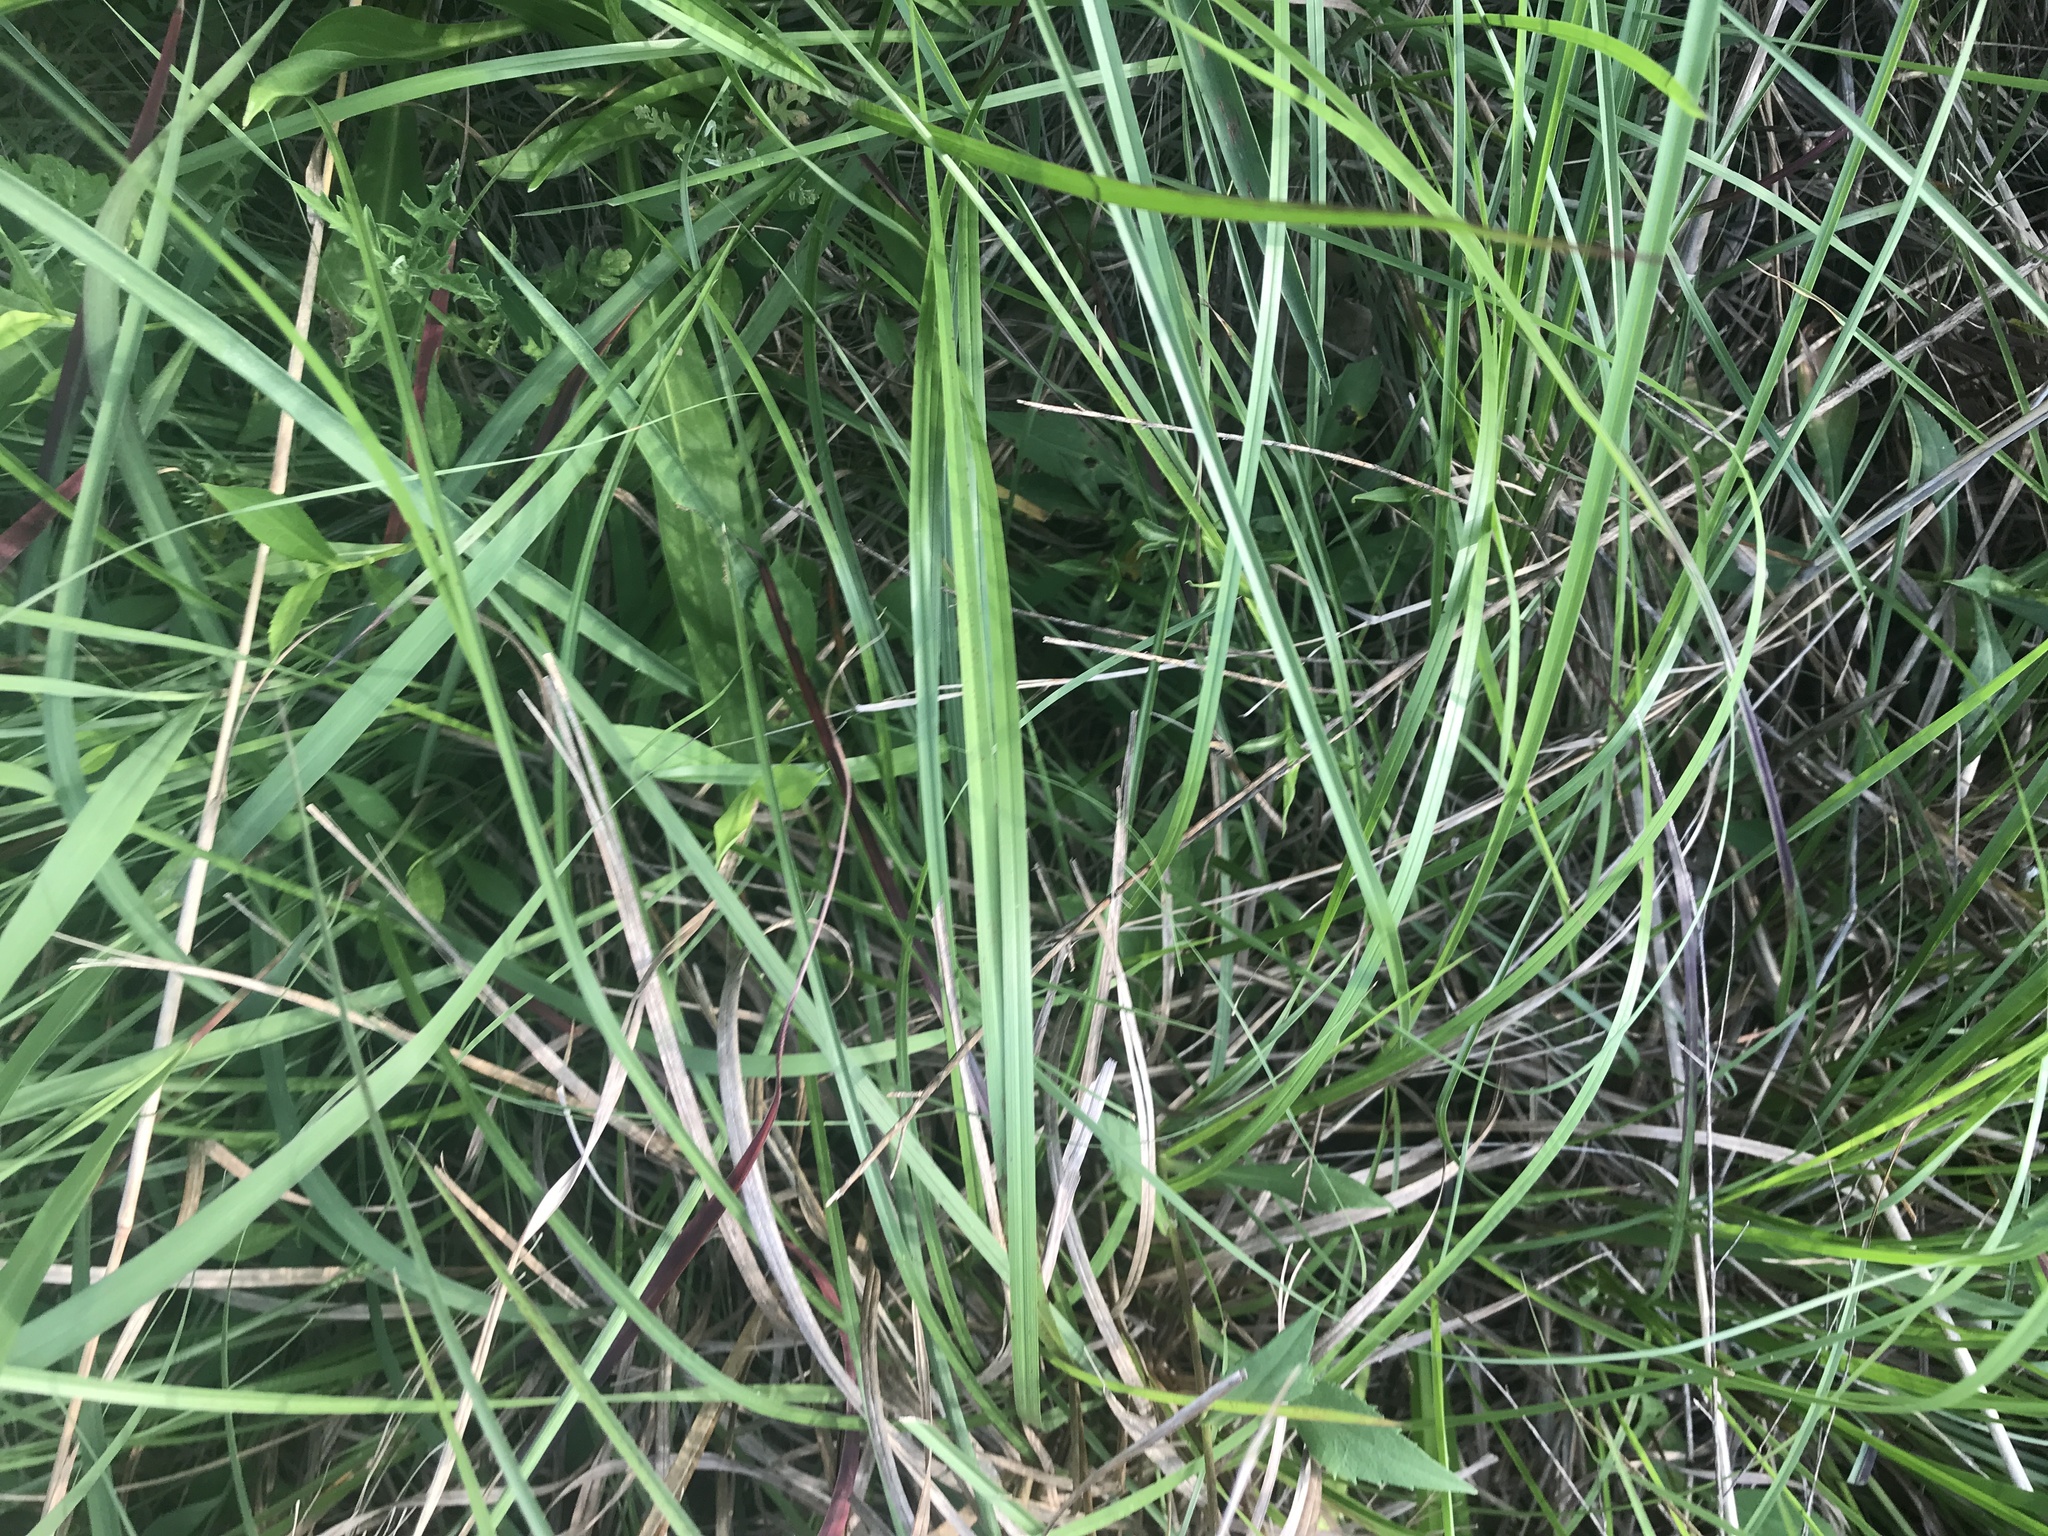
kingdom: Plantae
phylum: Tracheophyta
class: Liliopsida
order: Poales
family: Poaceae
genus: Schizachyrium
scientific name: Schizachyrium scoparium
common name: Little bluestem
